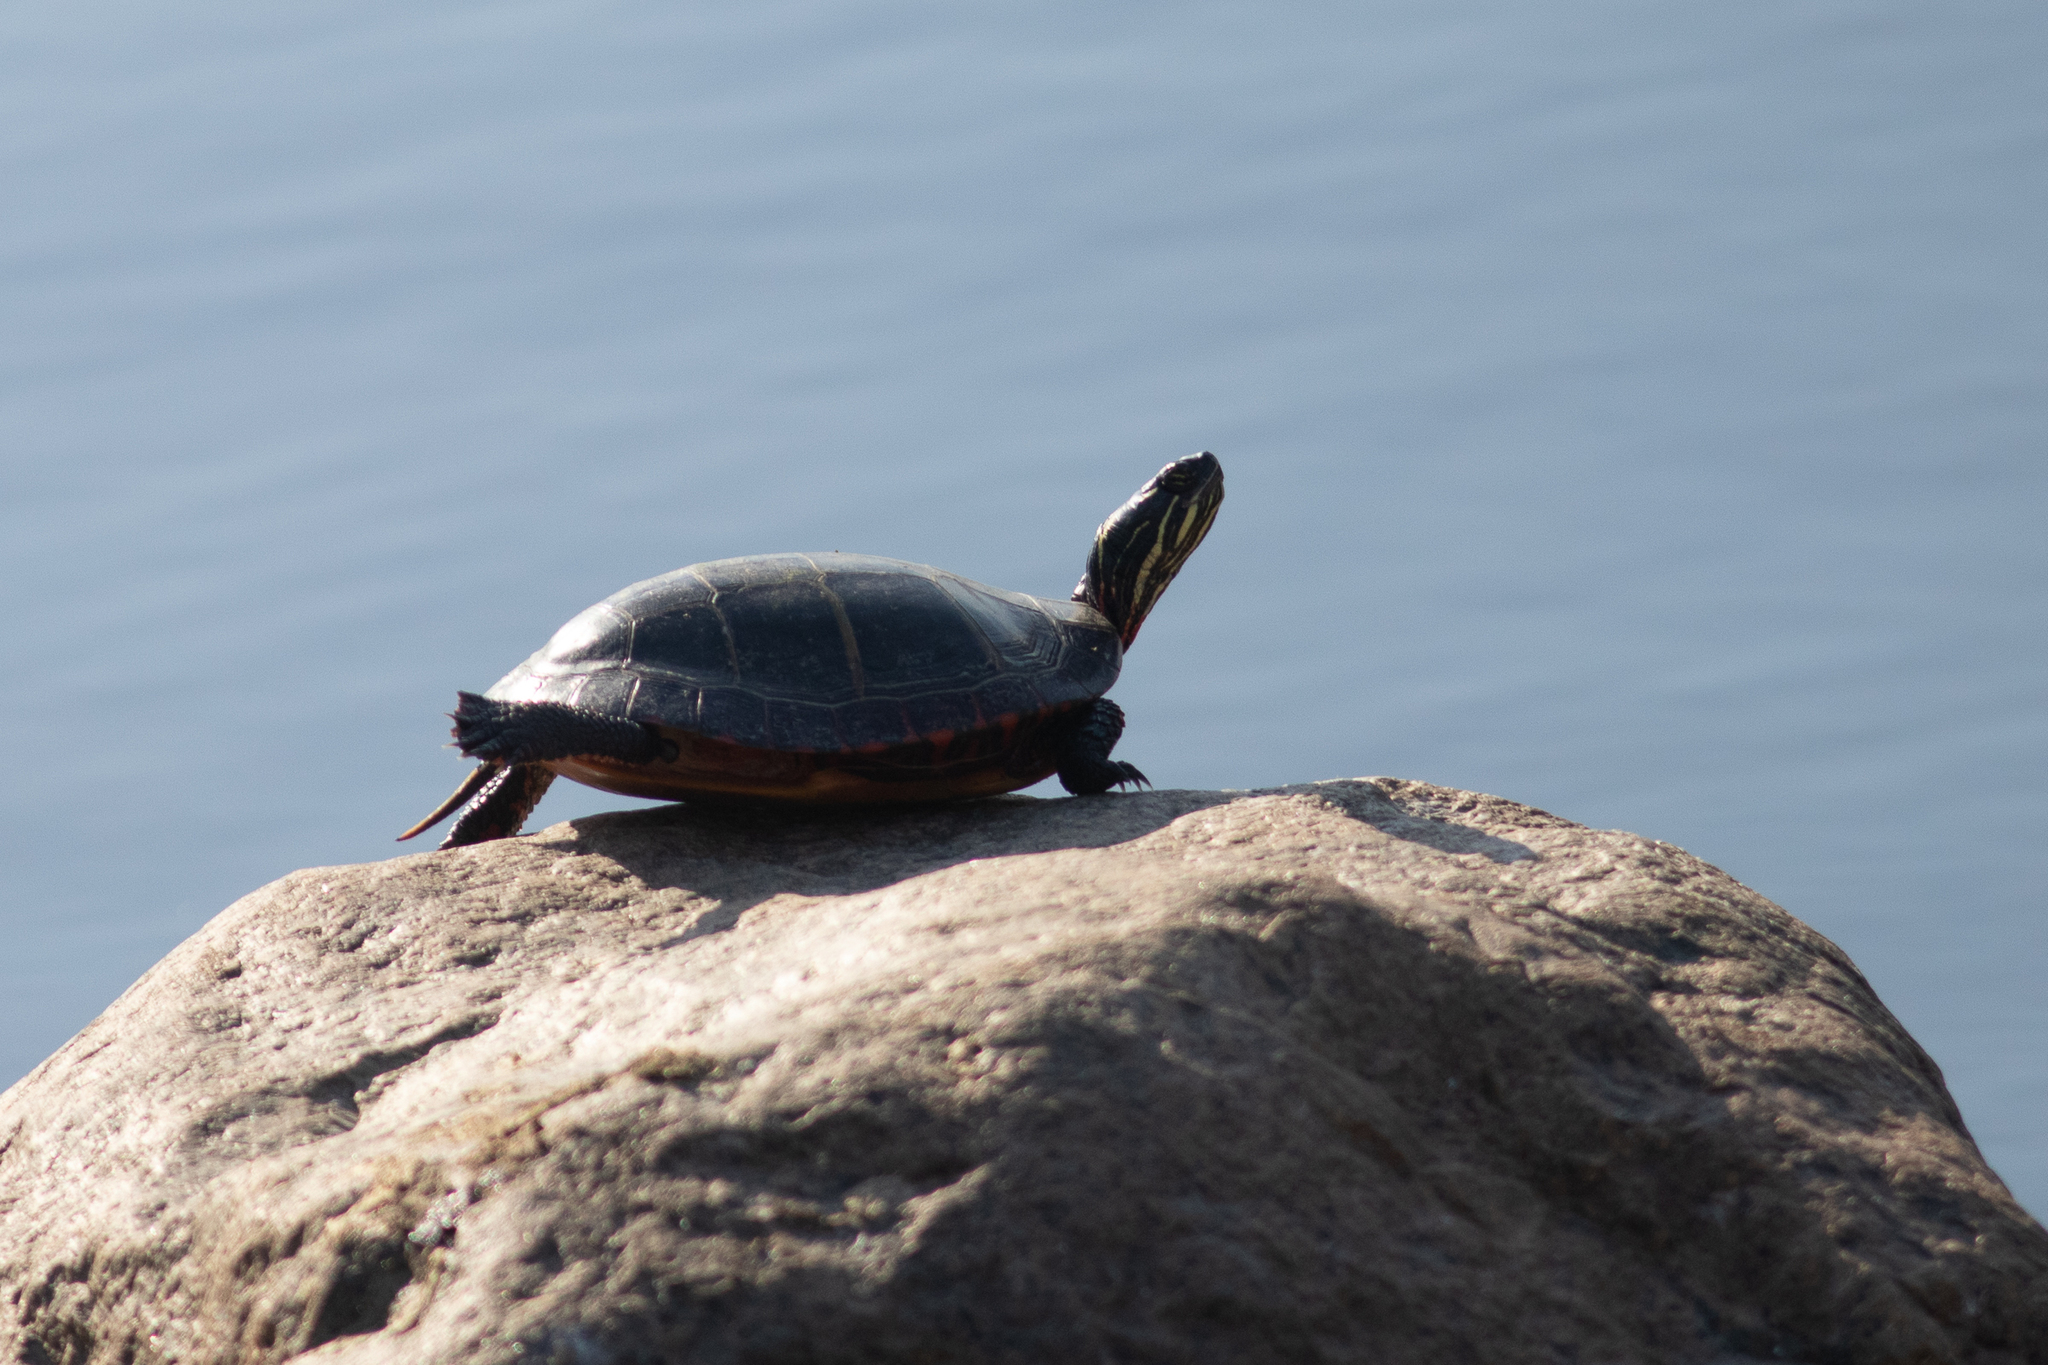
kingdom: Animalia
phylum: Chordata
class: Testudines
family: Emydidae
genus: Chrysemys
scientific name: Chrysemys picta
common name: Painted turtle
